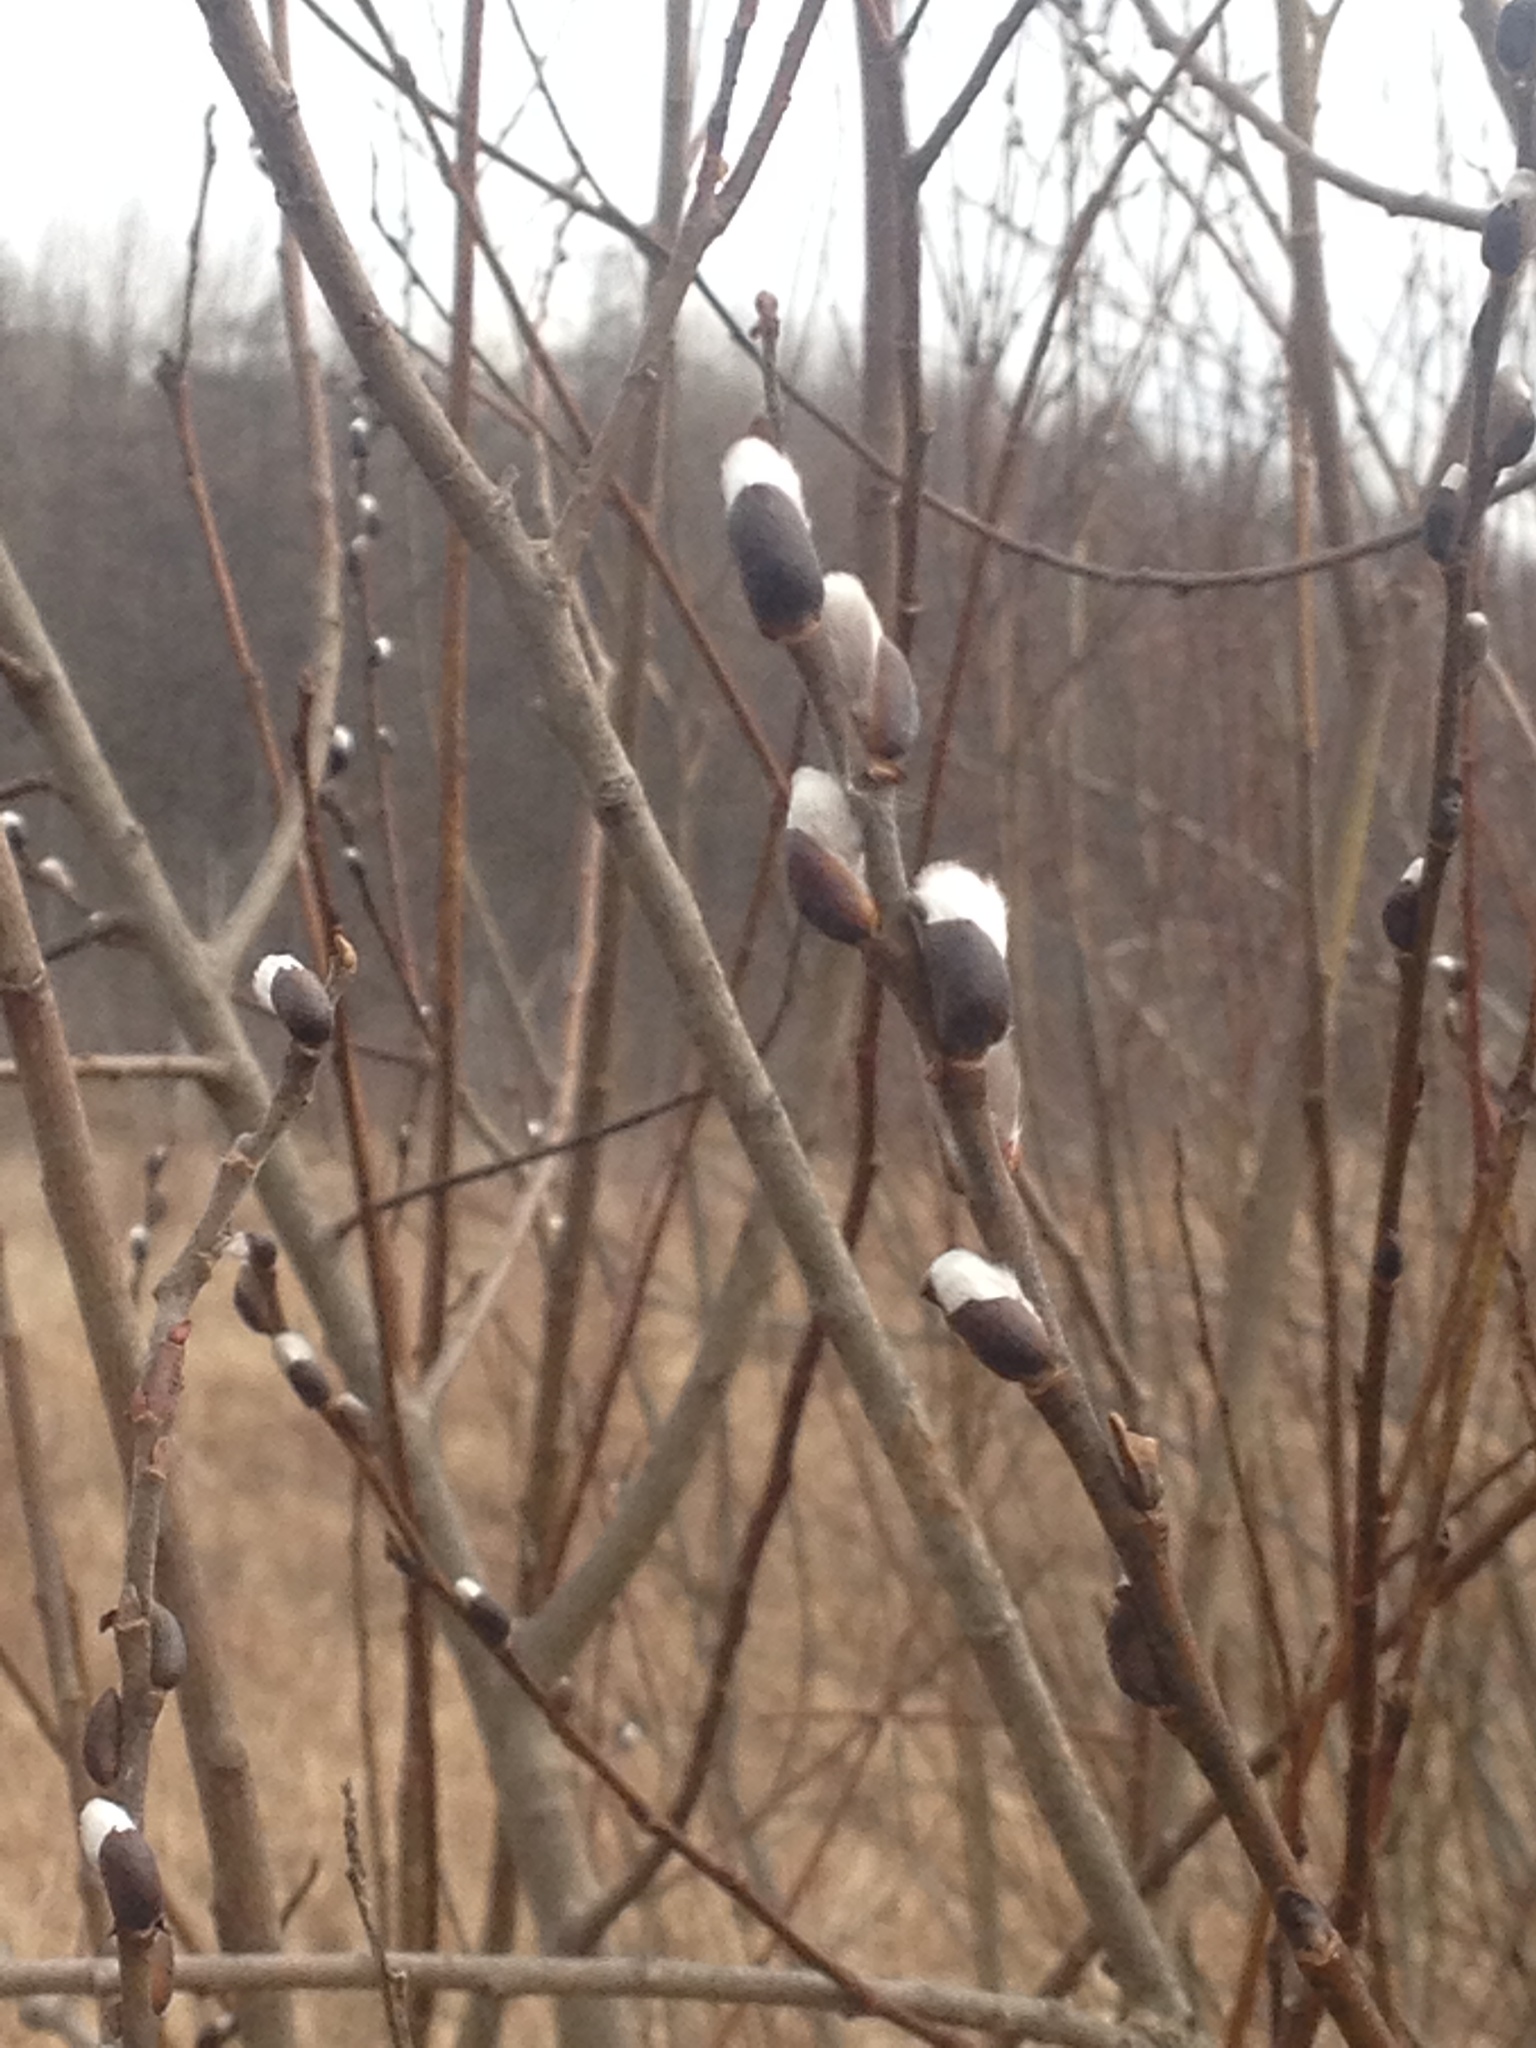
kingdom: Plantae
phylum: Tracheophyta
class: Magnoliopsida
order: Malpighiales
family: Salicaceae
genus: Salix
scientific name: Salix discolor
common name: Glaucous willow
